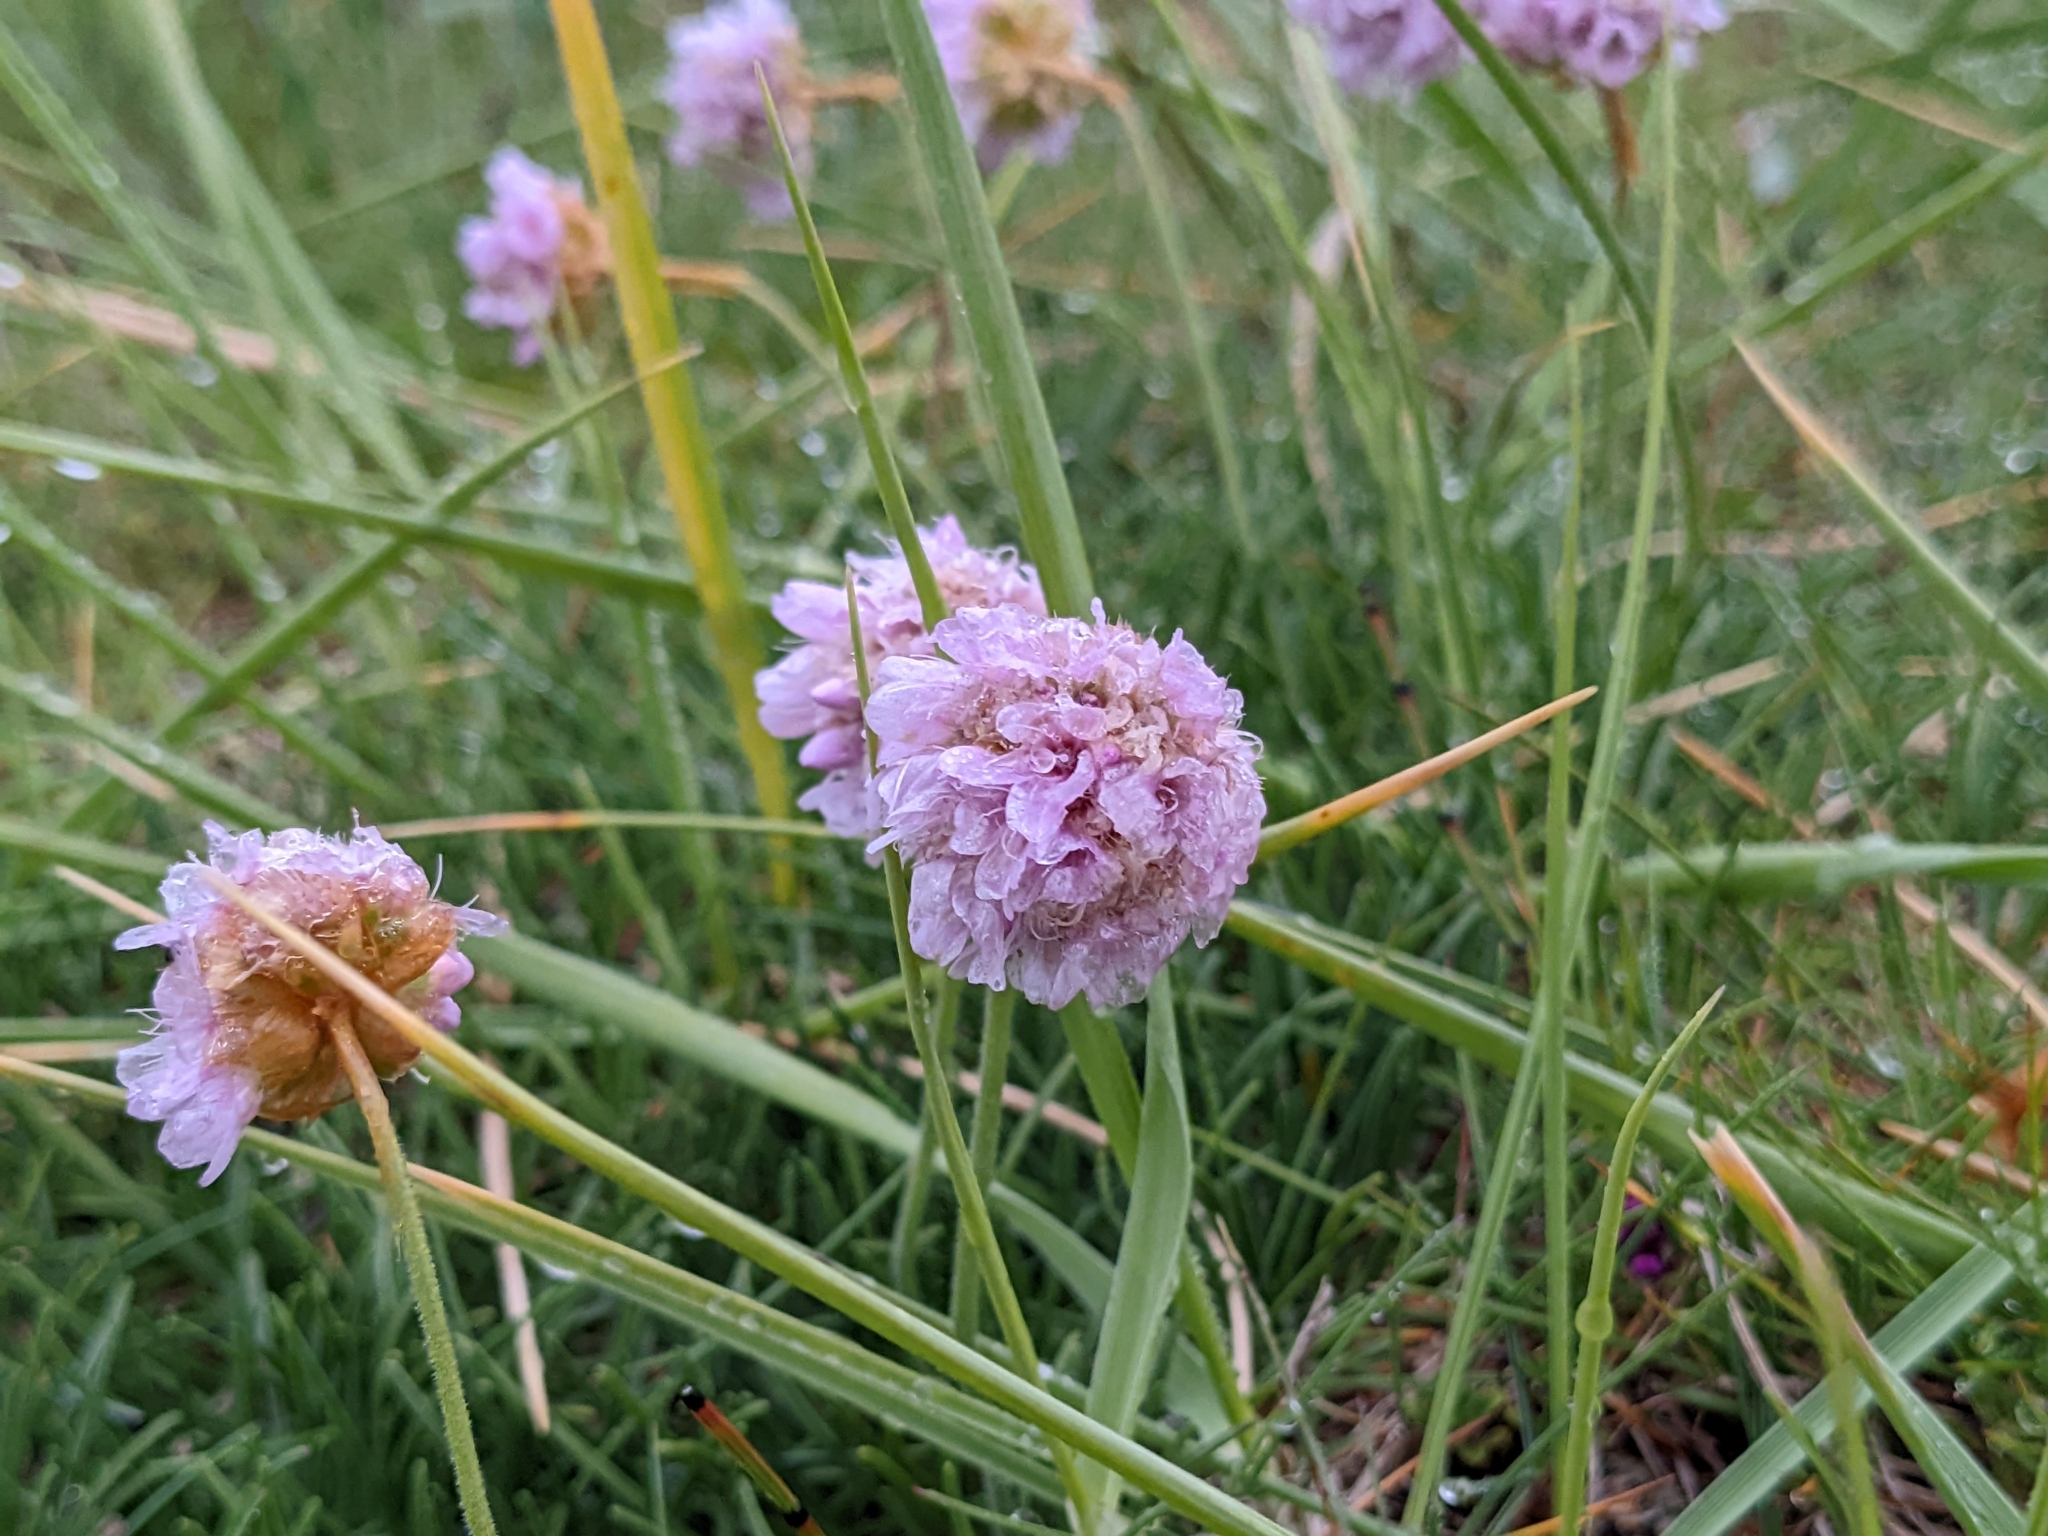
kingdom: Plantae
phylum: Tracheophyta
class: Magnoliopsida
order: Caryophyllales
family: Plumbaginaceae
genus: Armeria
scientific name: Armeria maritima
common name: Thrift
